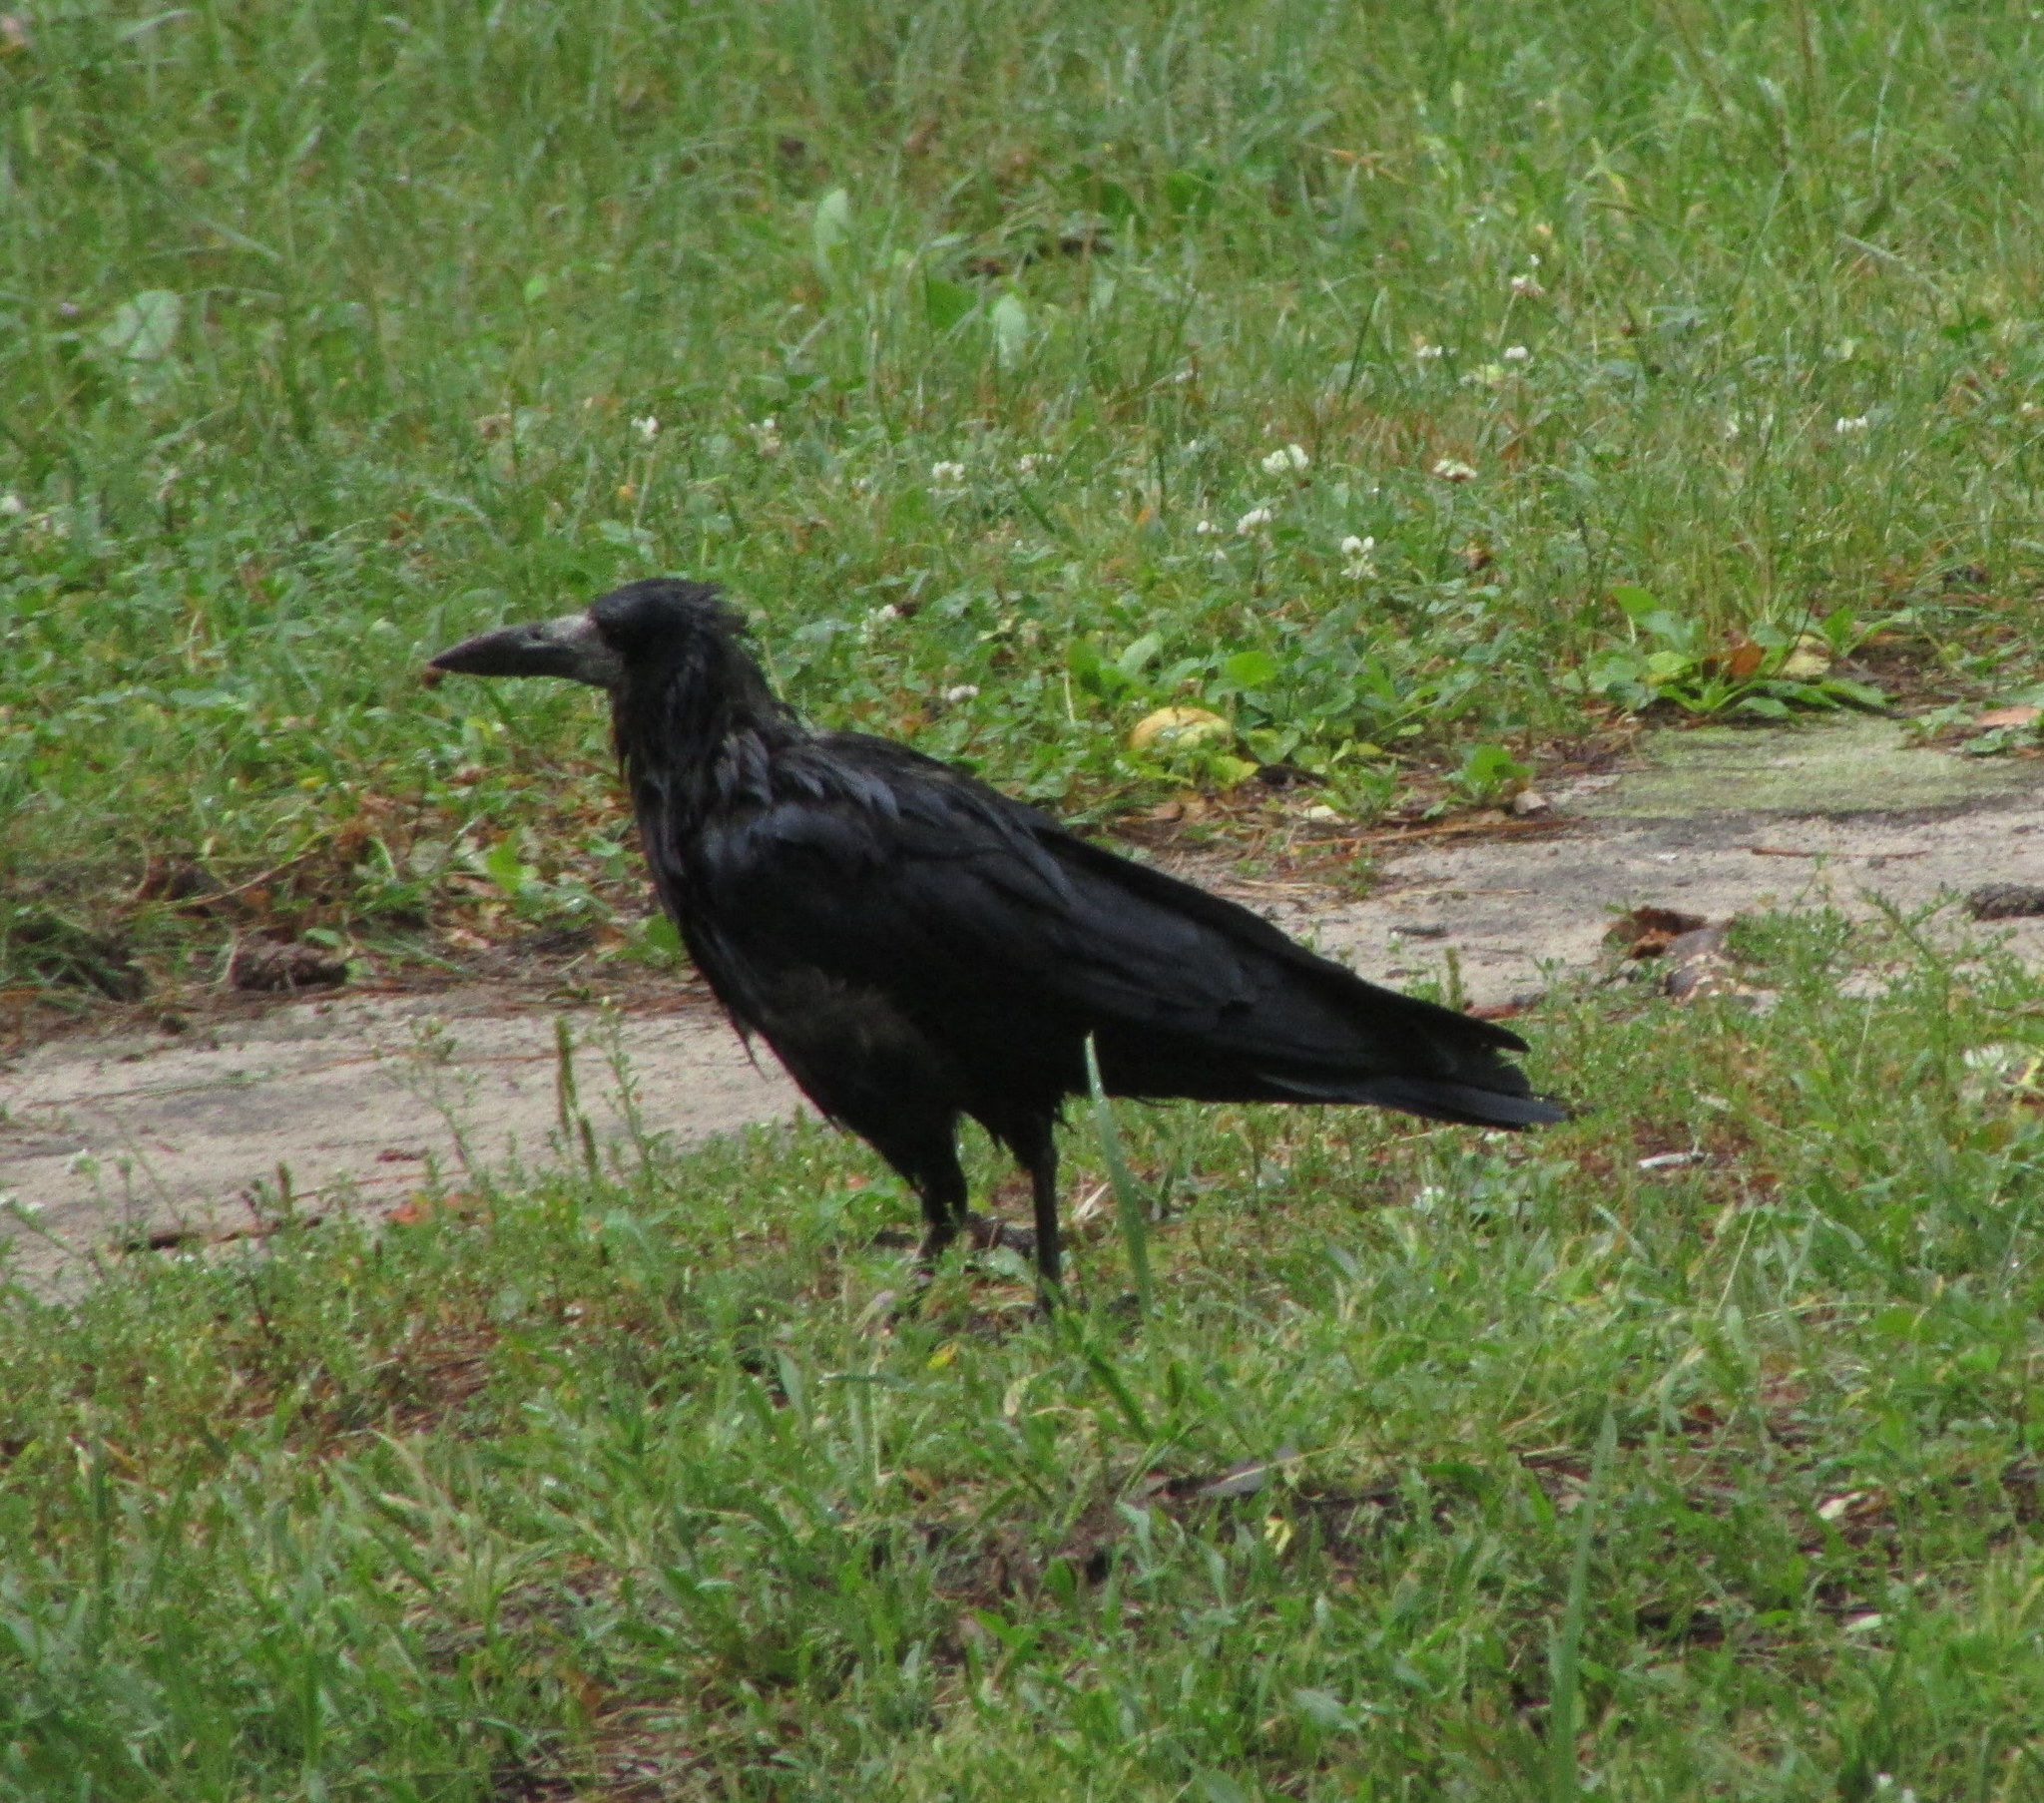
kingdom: Animalia
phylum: Chordata
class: Aves
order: Passeriformes
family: Corvidae
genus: Corvus
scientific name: Corvus frugilegus
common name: Rook
